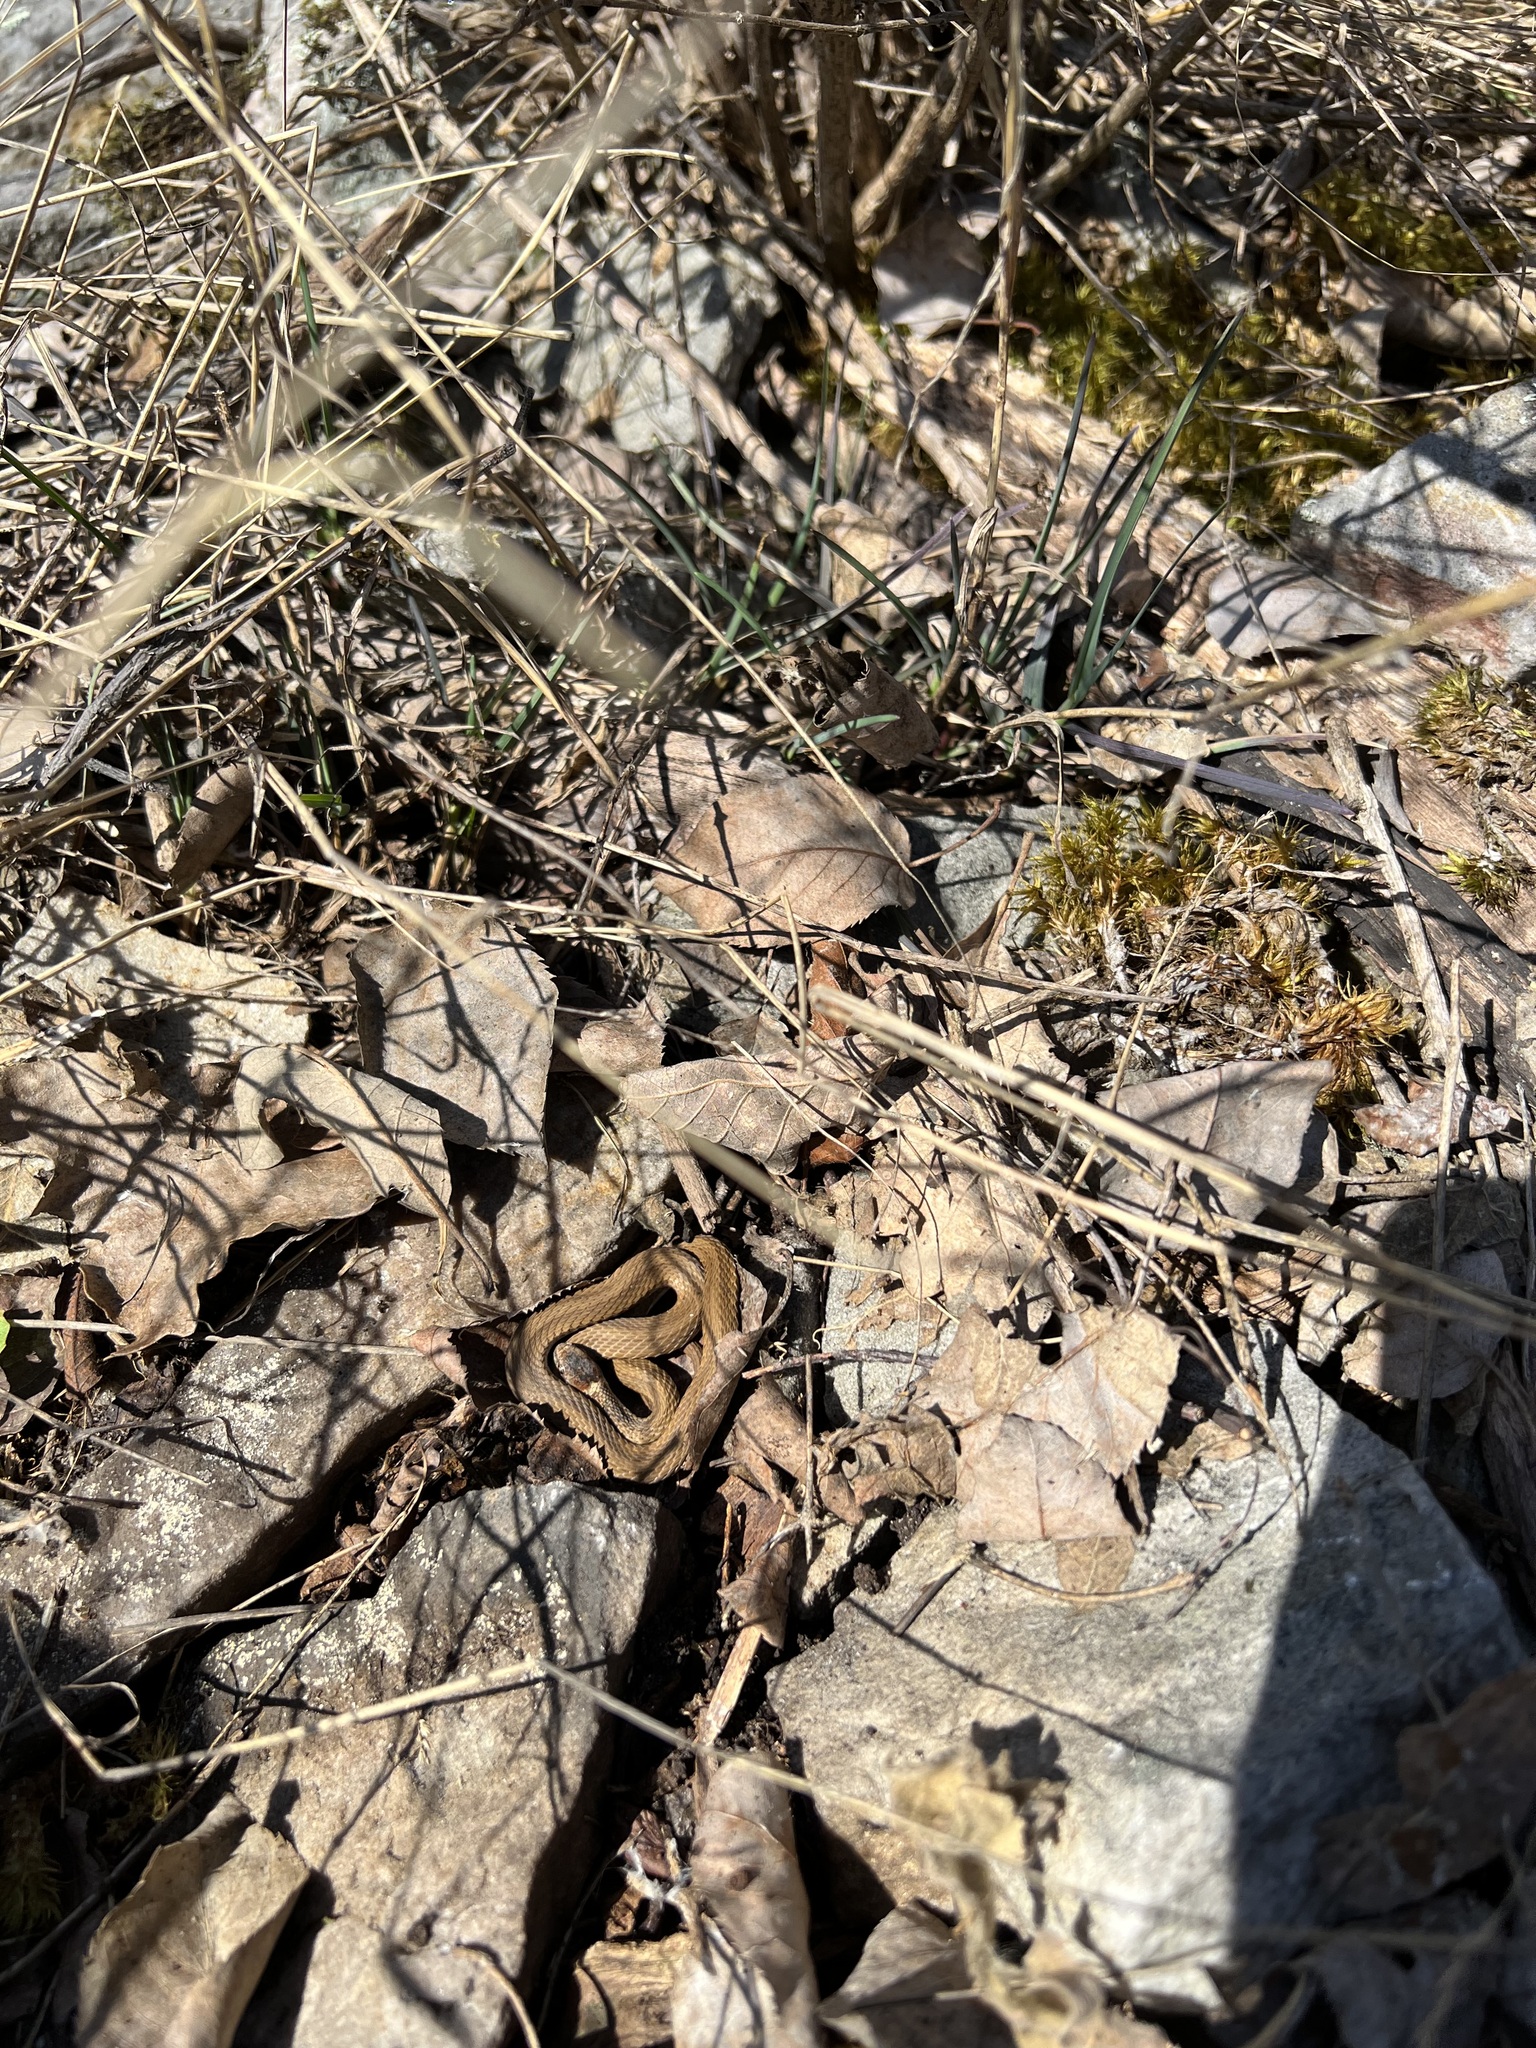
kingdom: Animalia
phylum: Chordata
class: Squamata
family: Colubridae
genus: Storeria
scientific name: Storeria occipitomaculata
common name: Redbelly snake
